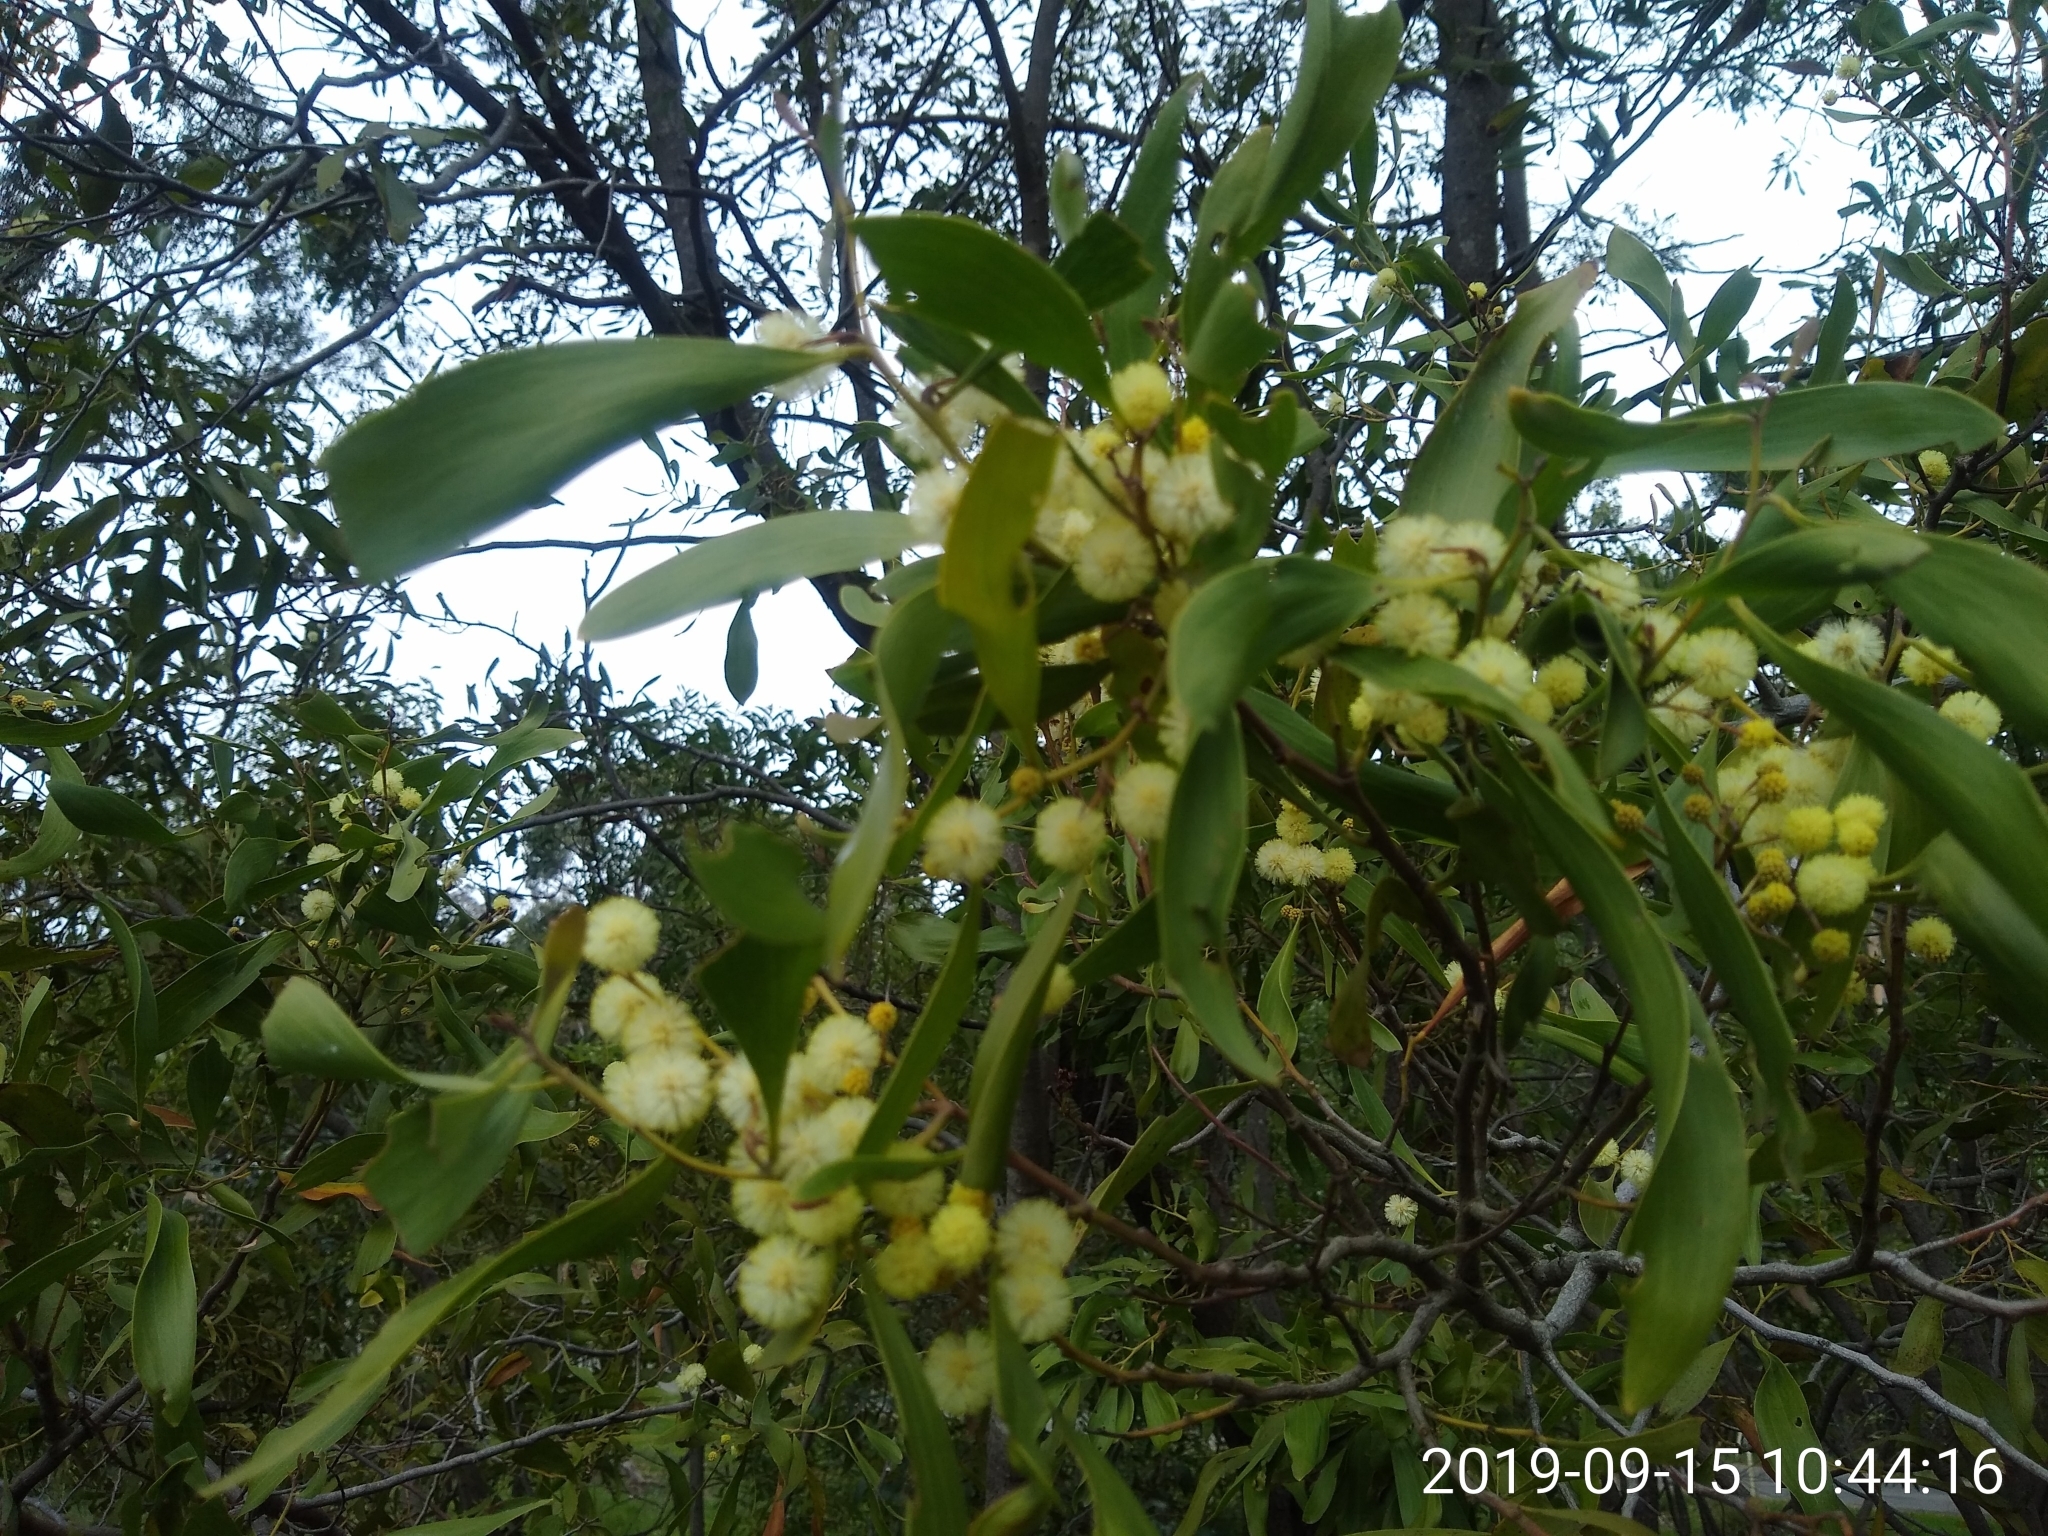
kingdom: Plantae
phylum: Tracheophyta
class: Magnoliopsida
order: Fabales
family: Fabaceae
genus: Acacia
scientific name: Acacia melanoxylon
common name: Blackwood
